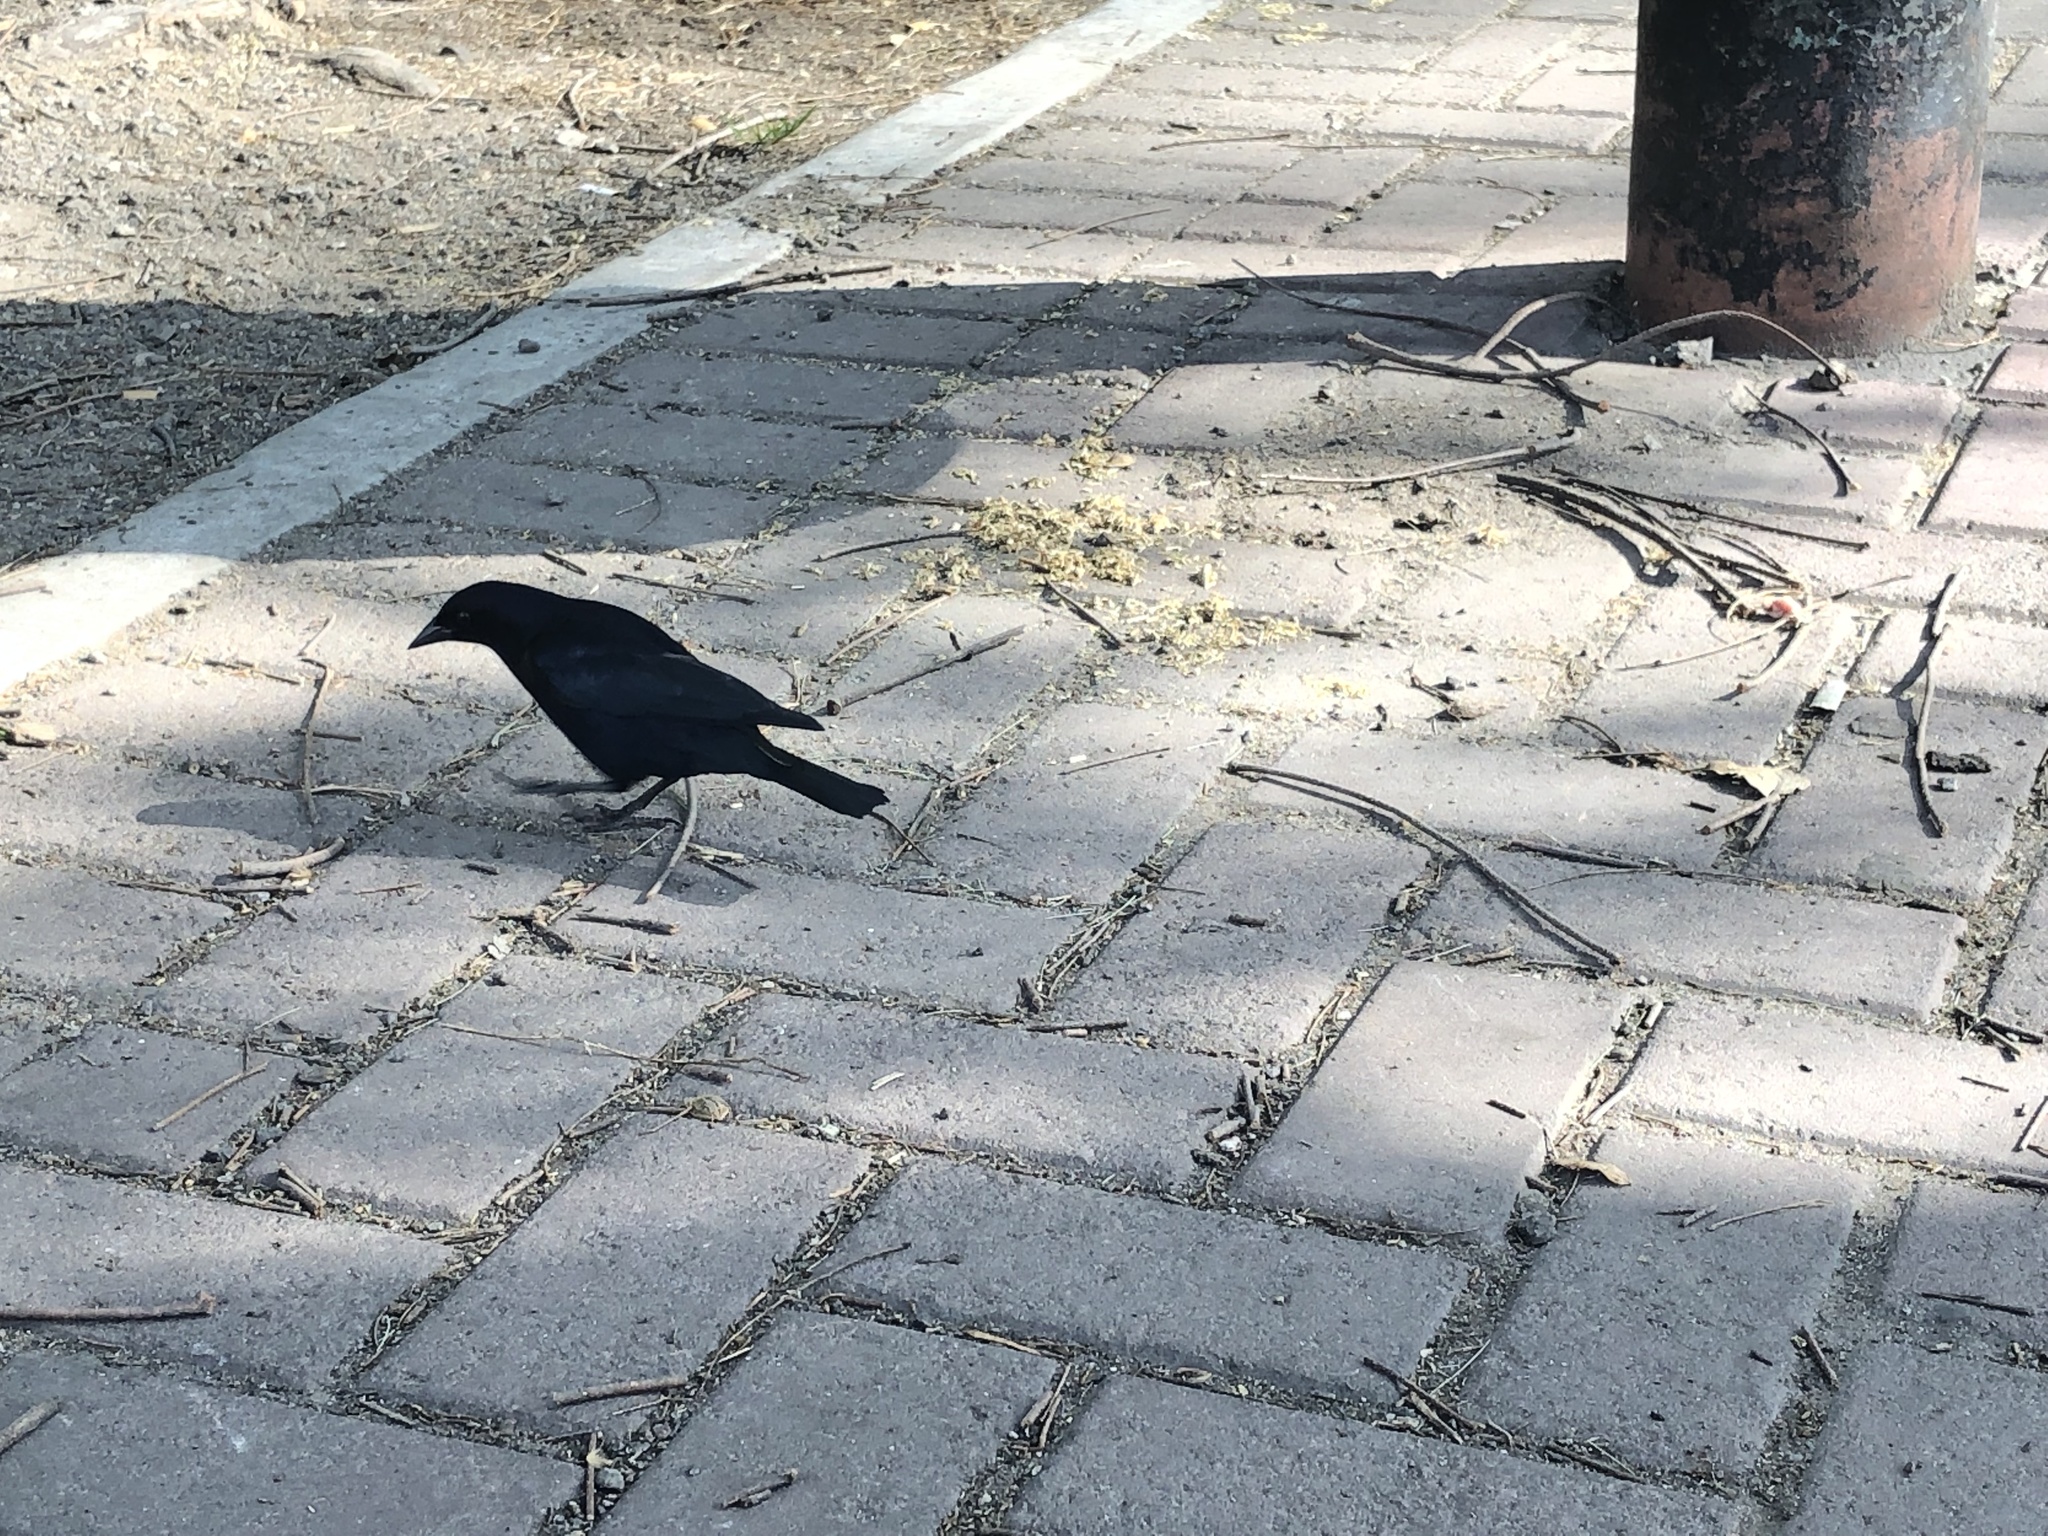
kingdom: Animalia
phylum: Chordata
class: Aves
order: Passeriformes
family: Icteridae
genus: Molothrus
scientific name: Molothrus bonariensis
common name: Shiny cowbird
